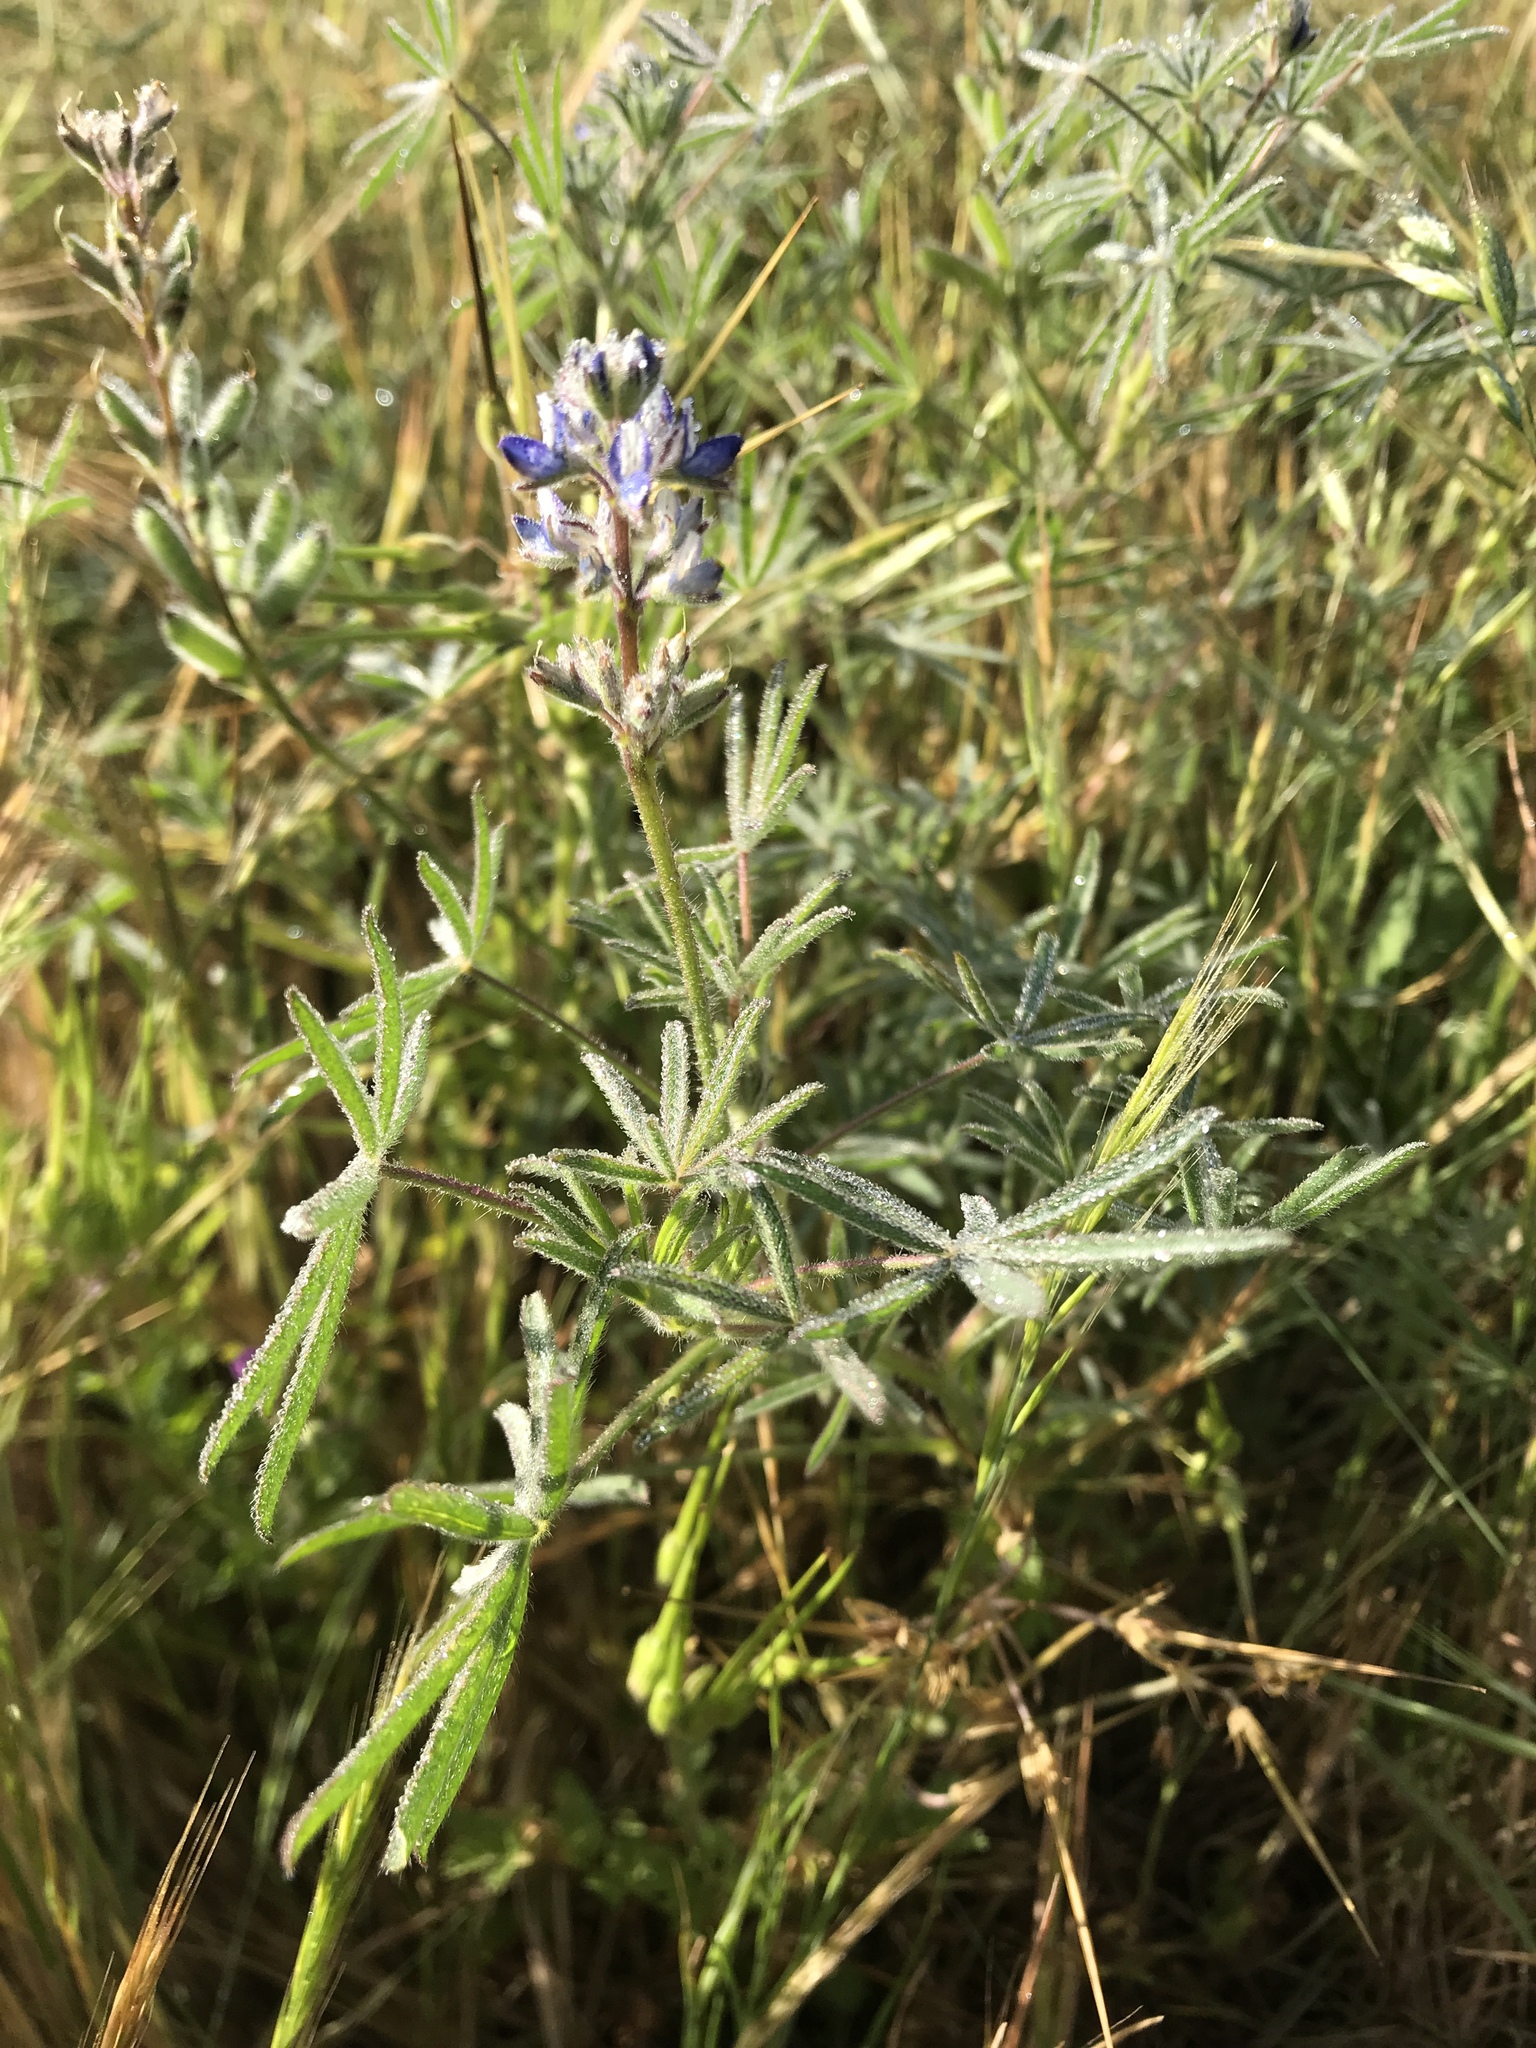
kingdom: Plantae
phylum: Tracheophyta
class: Magnoliopsida
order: Fabales
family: Fabaceae
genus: Lupinus
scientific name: Lupinus bicolor
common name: Miniature lupine
